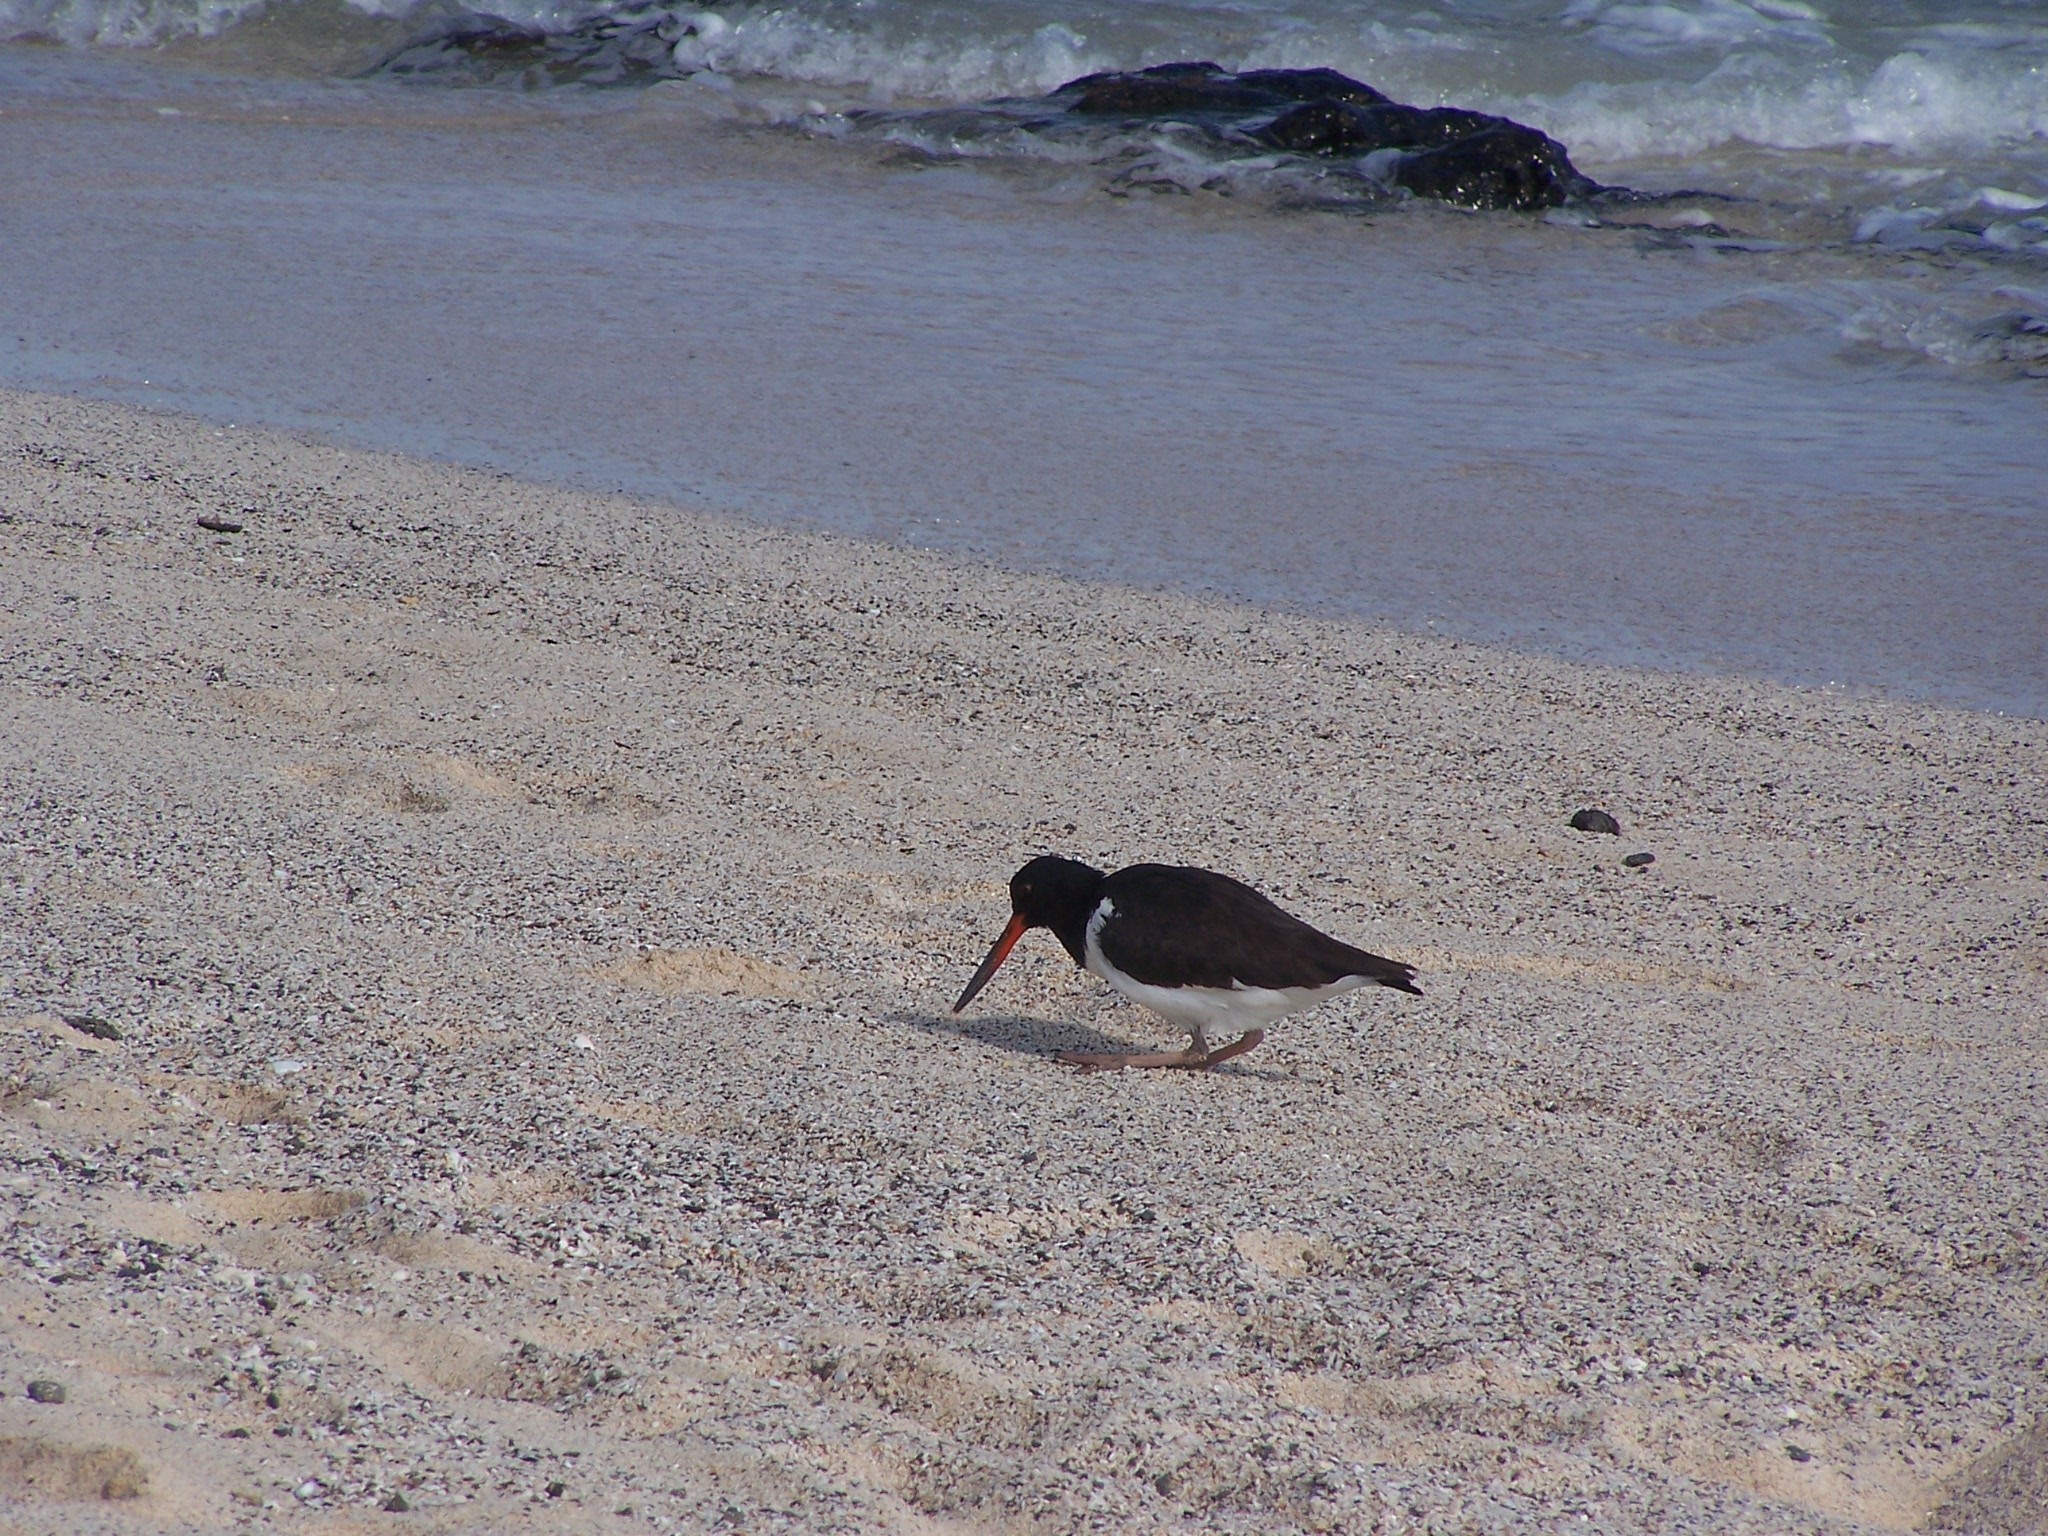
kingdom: Animalia
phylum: Chordata
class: Aves
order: Charadriiformes
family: Haematopodidae
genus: Haematopus
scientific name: Haematopus palliatus
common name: American oystercatcher
